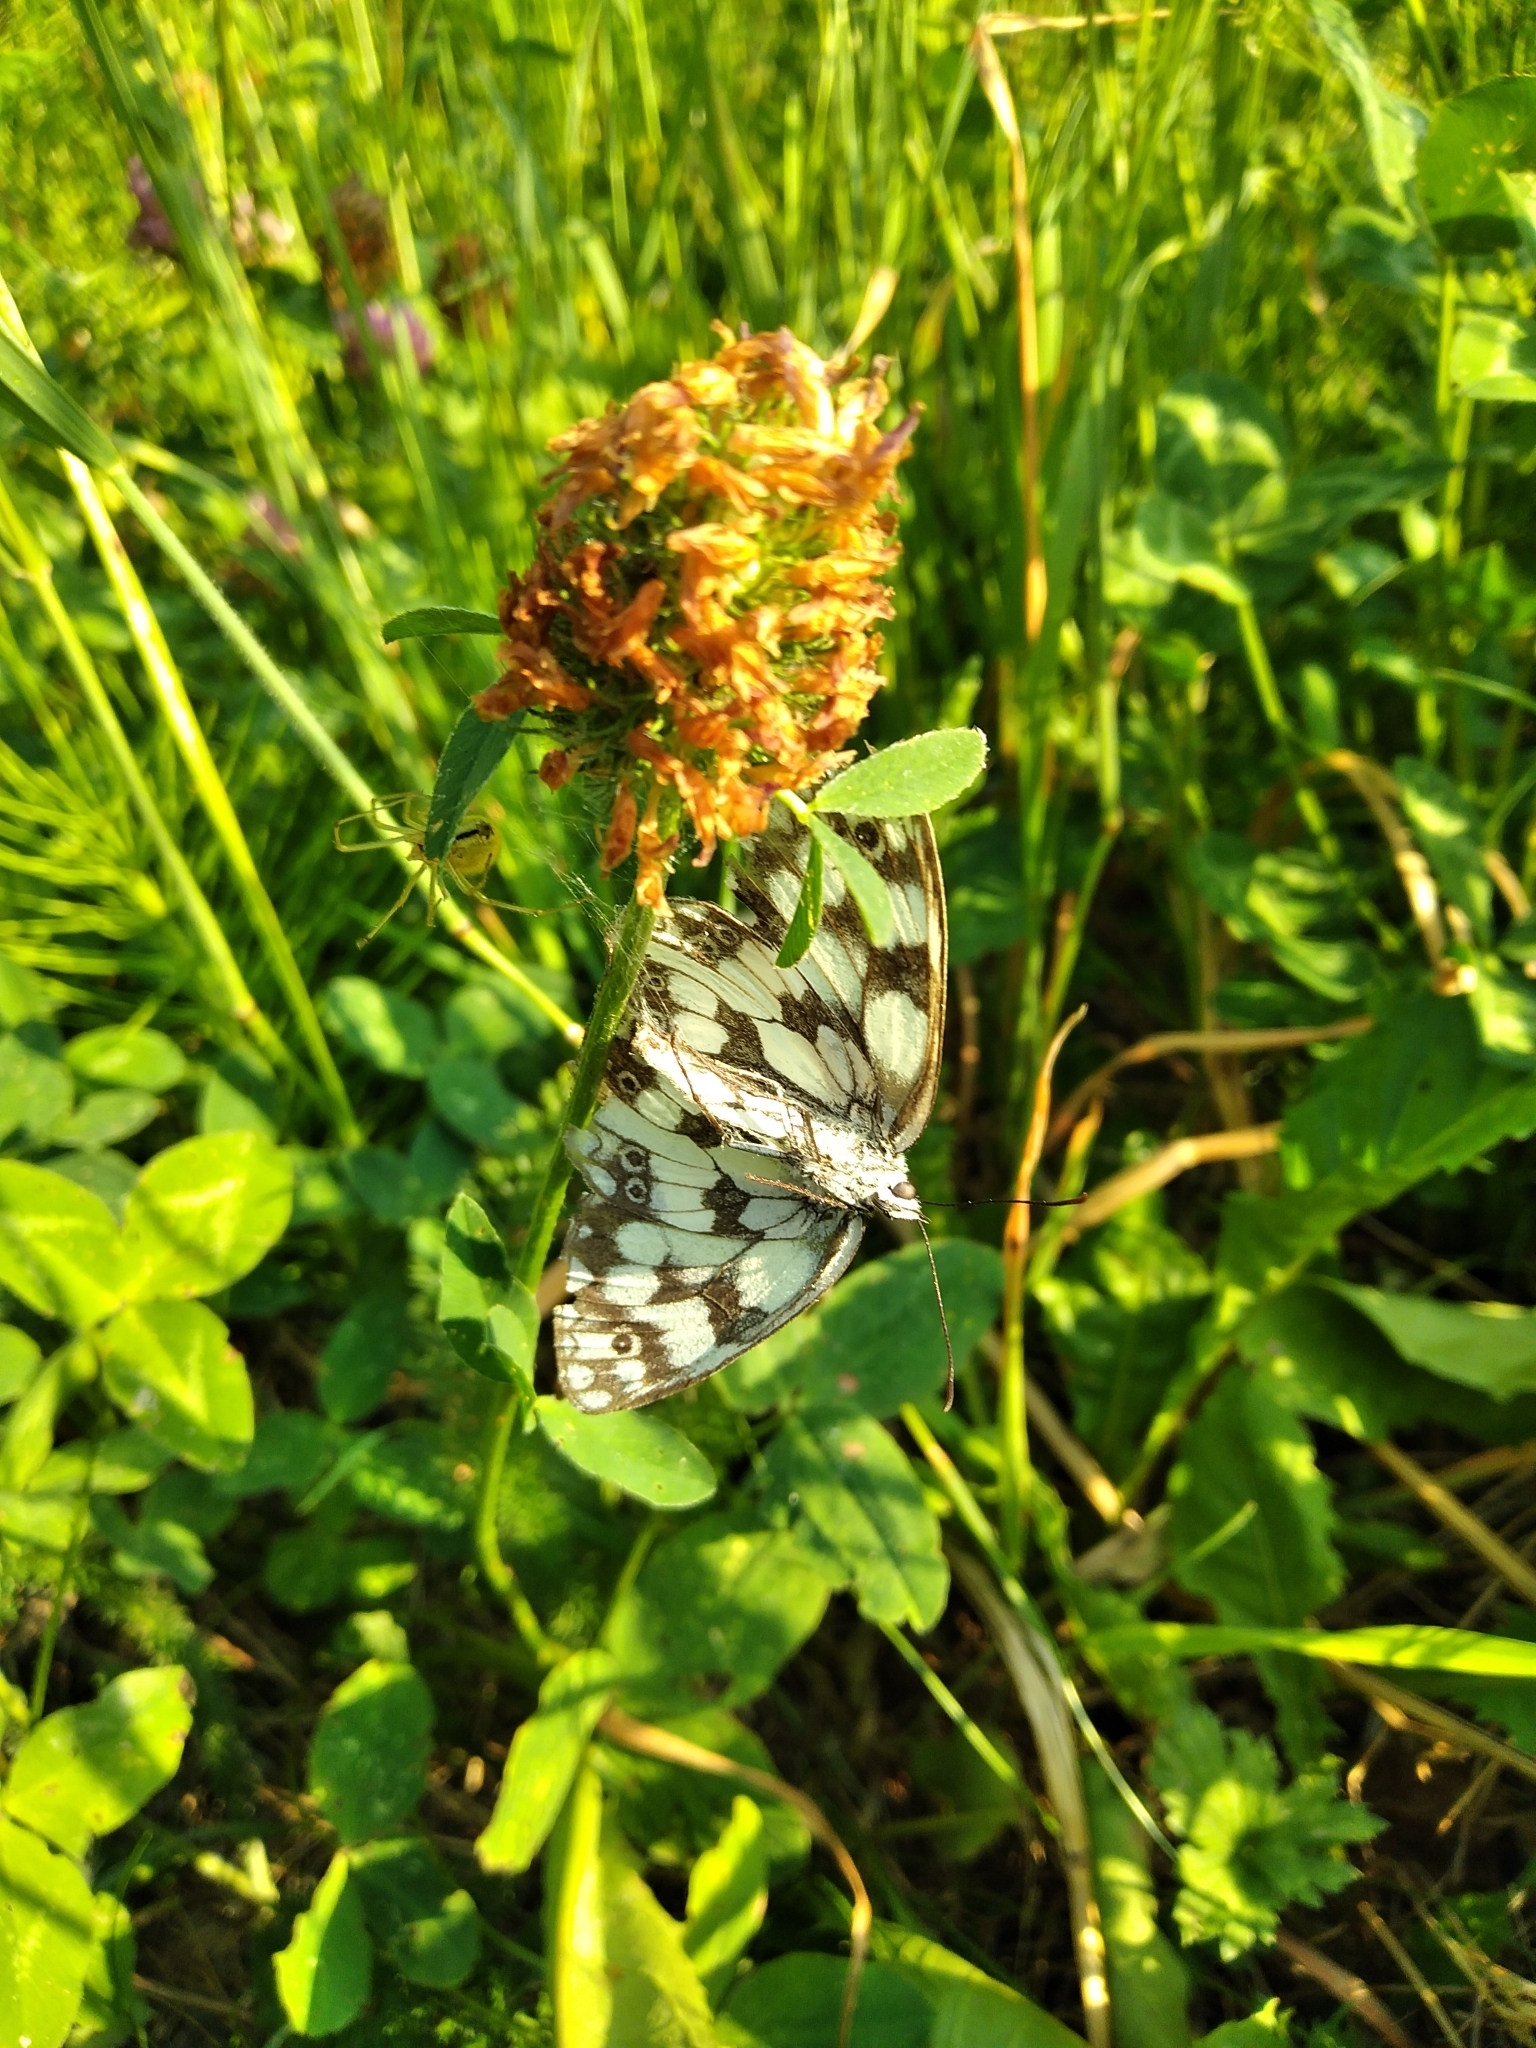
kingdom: Animalia
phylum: Arthropoda
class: Insecta
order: Lepidoptera
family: Nymphalidae
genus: Melanargia
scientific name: Melanargia galathea
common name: Marbled white
